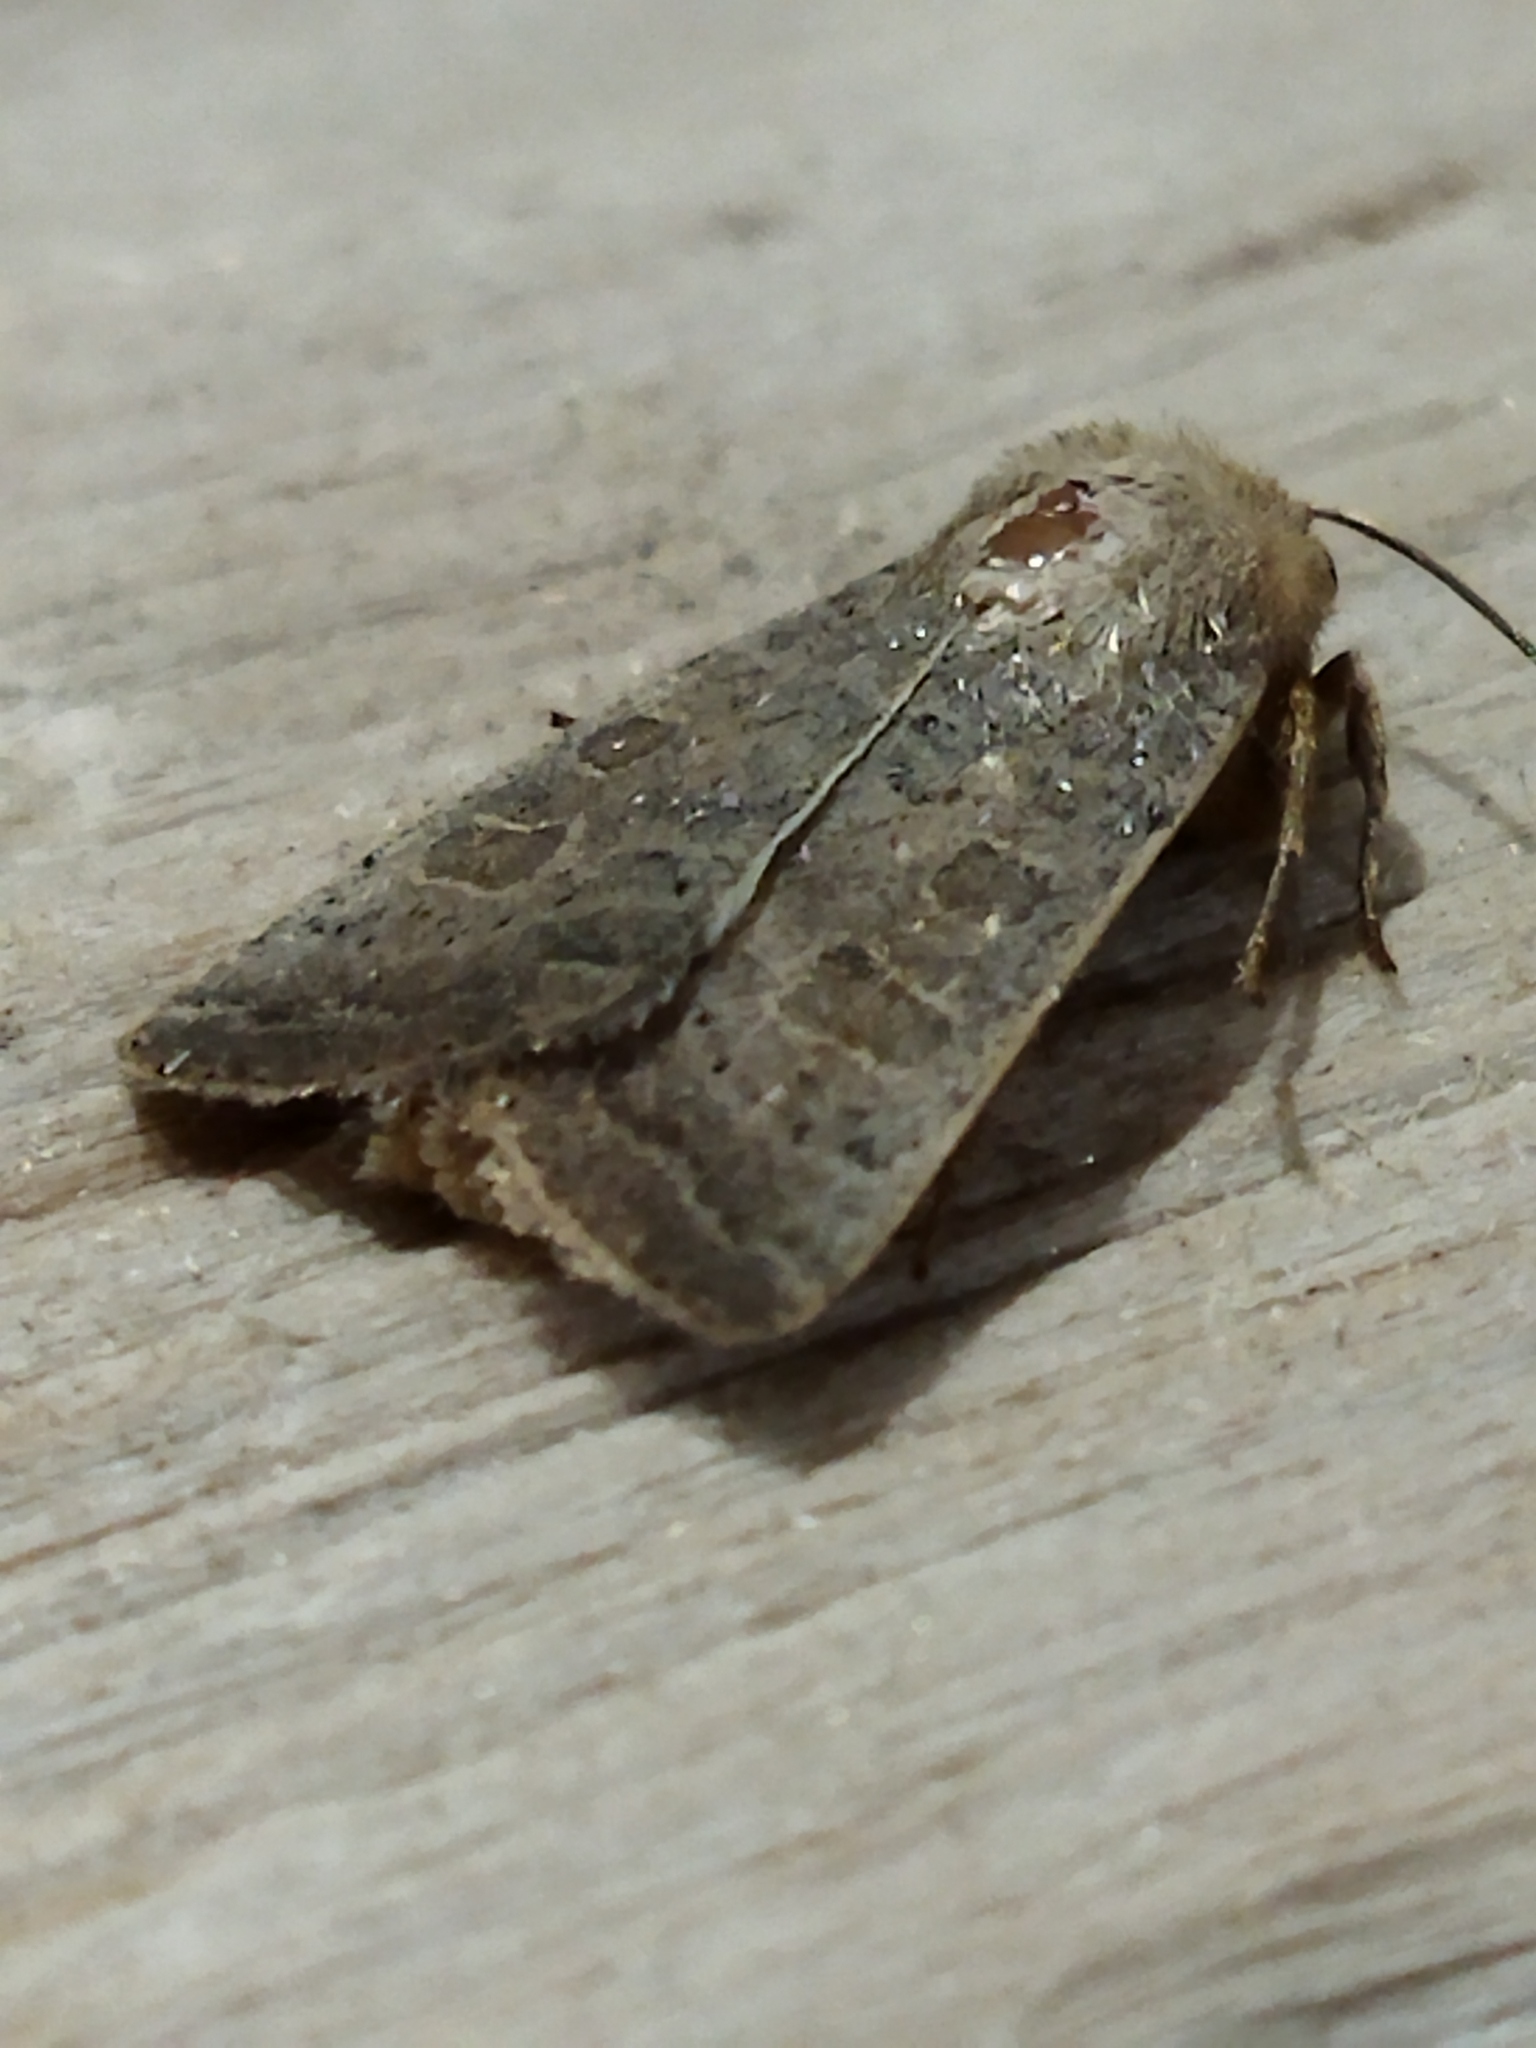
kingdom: Animalia
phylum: Arthropoda
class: Insecta
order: Lepidoptera
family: Noctuidae
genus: Hoplodrina
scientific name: Hoplodrina ambigua
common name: Vine's rustic
